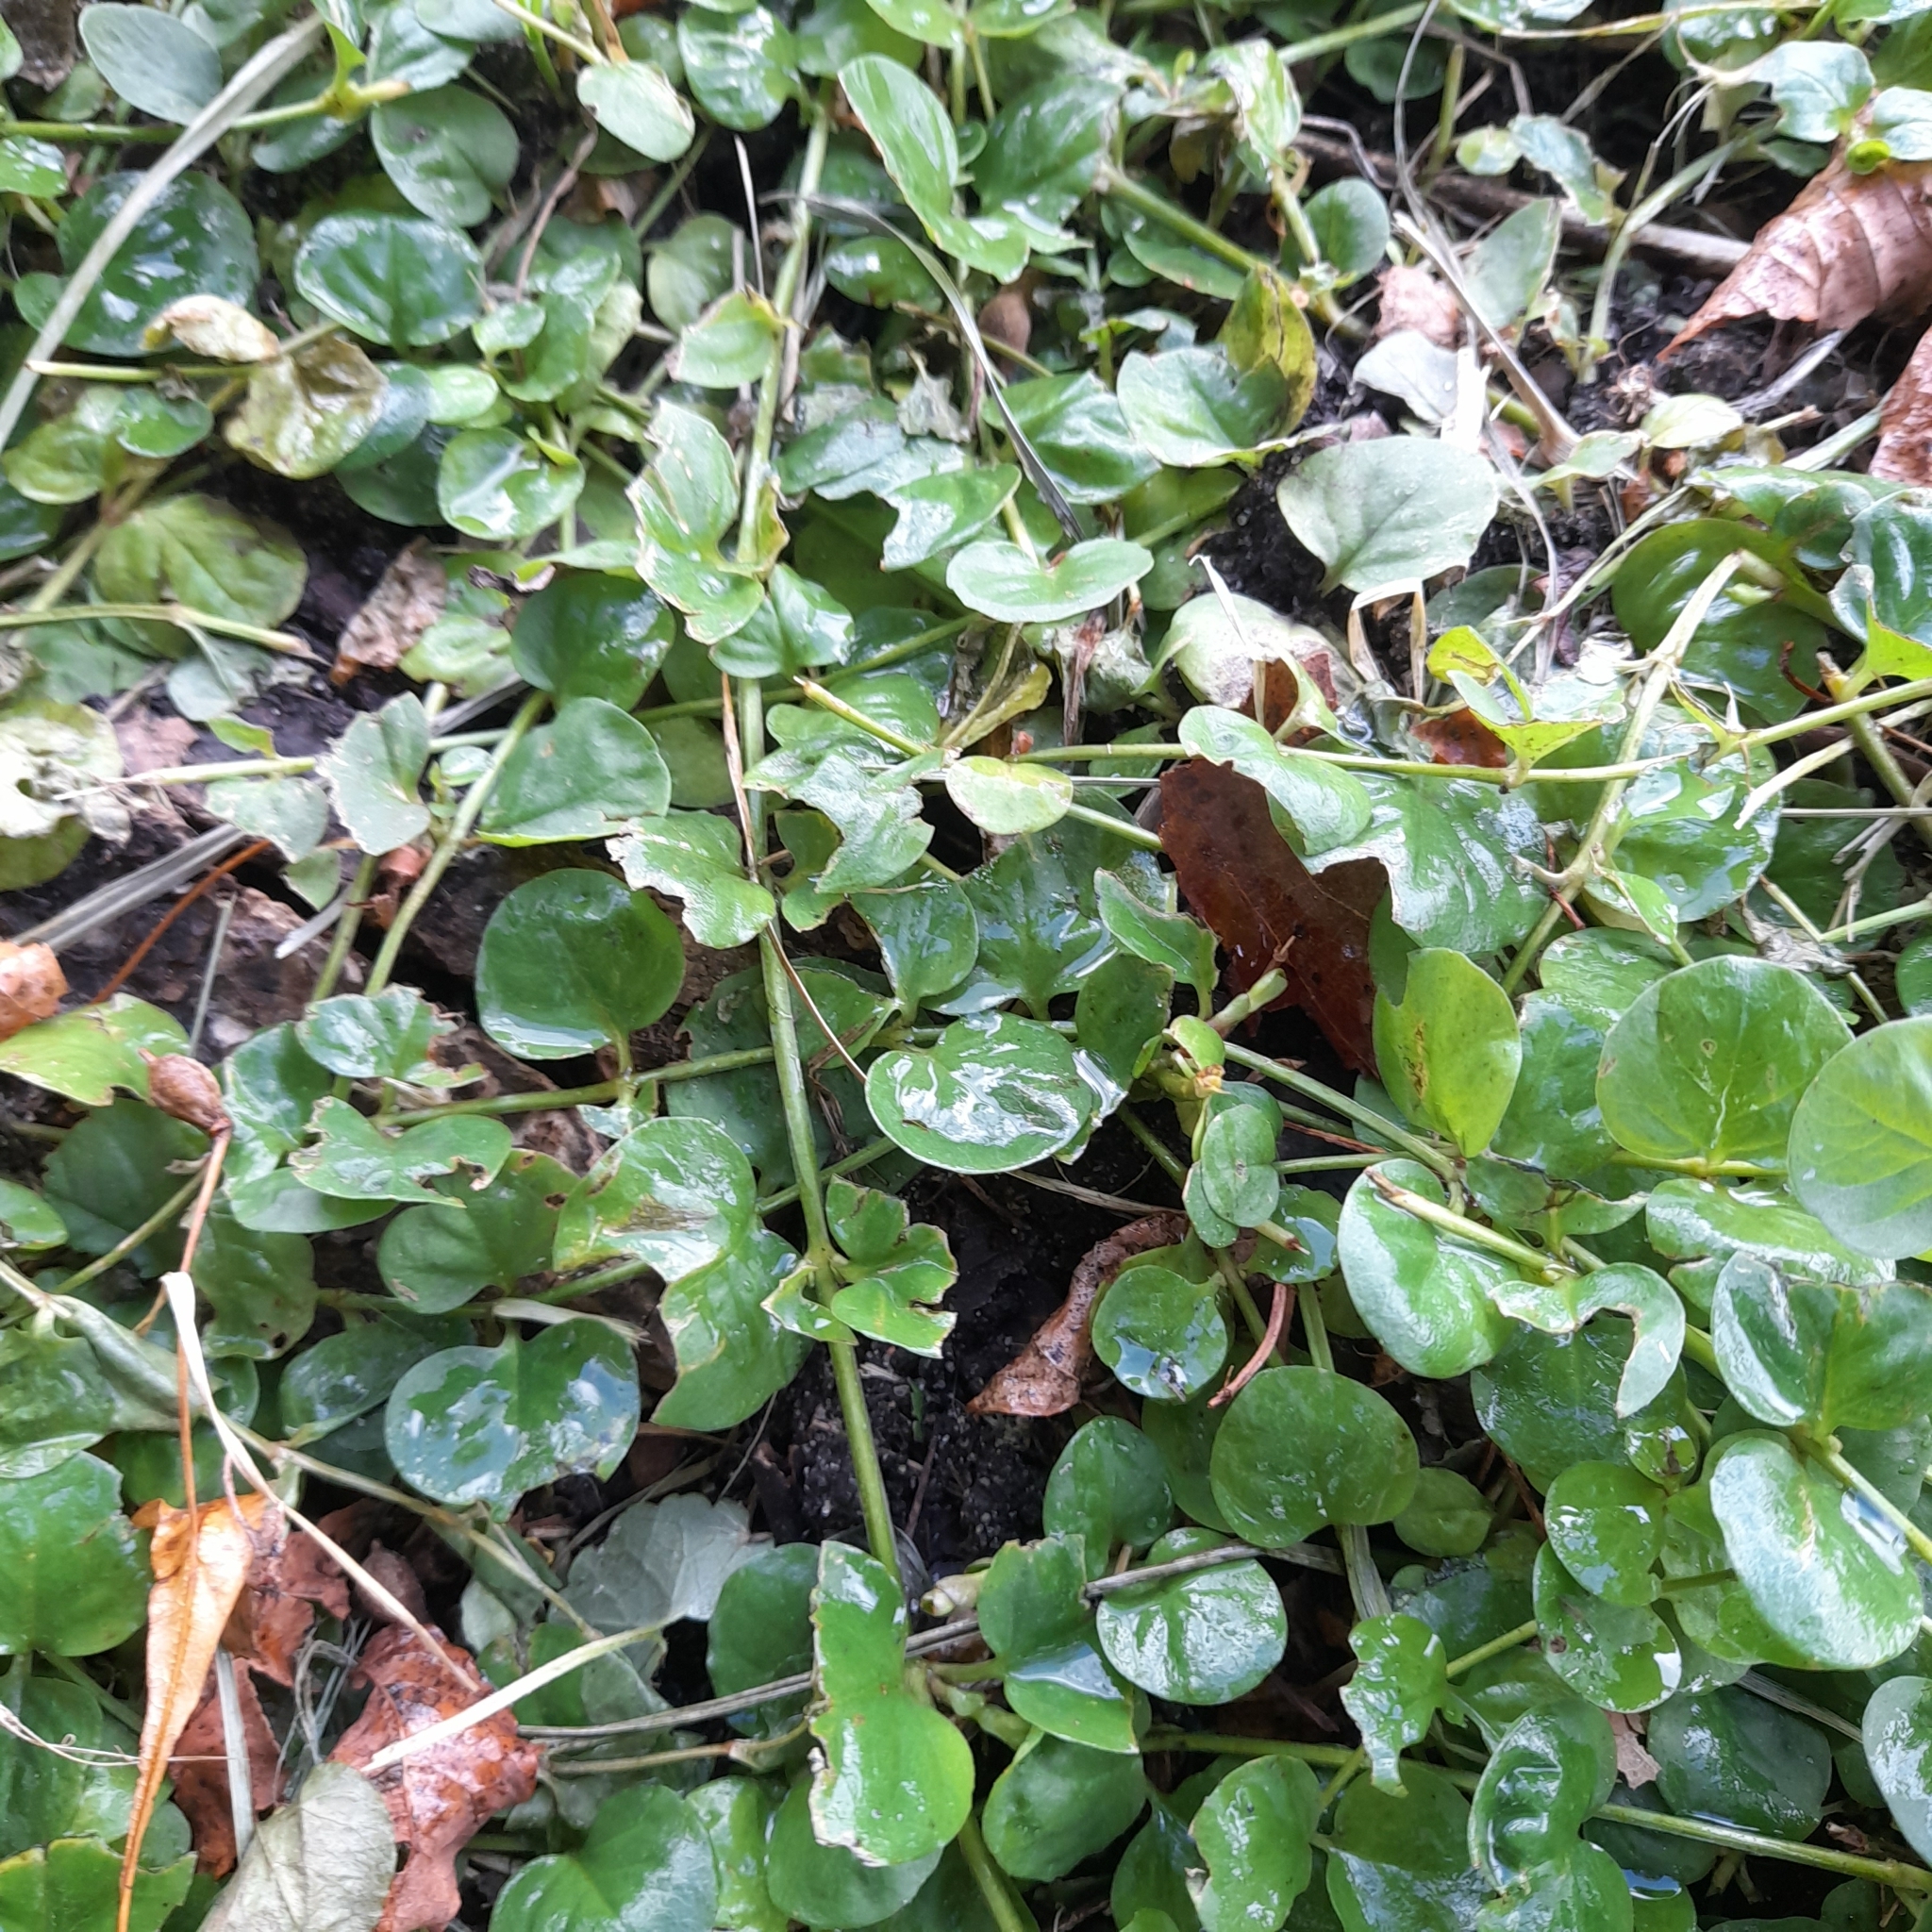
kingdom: Plantae
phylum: Tracheophyta
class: Magnoliopsida
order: Ericales
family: Primulaceae
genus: Lysimachia
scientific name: Lysimachia nummularia
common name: Moneywort
